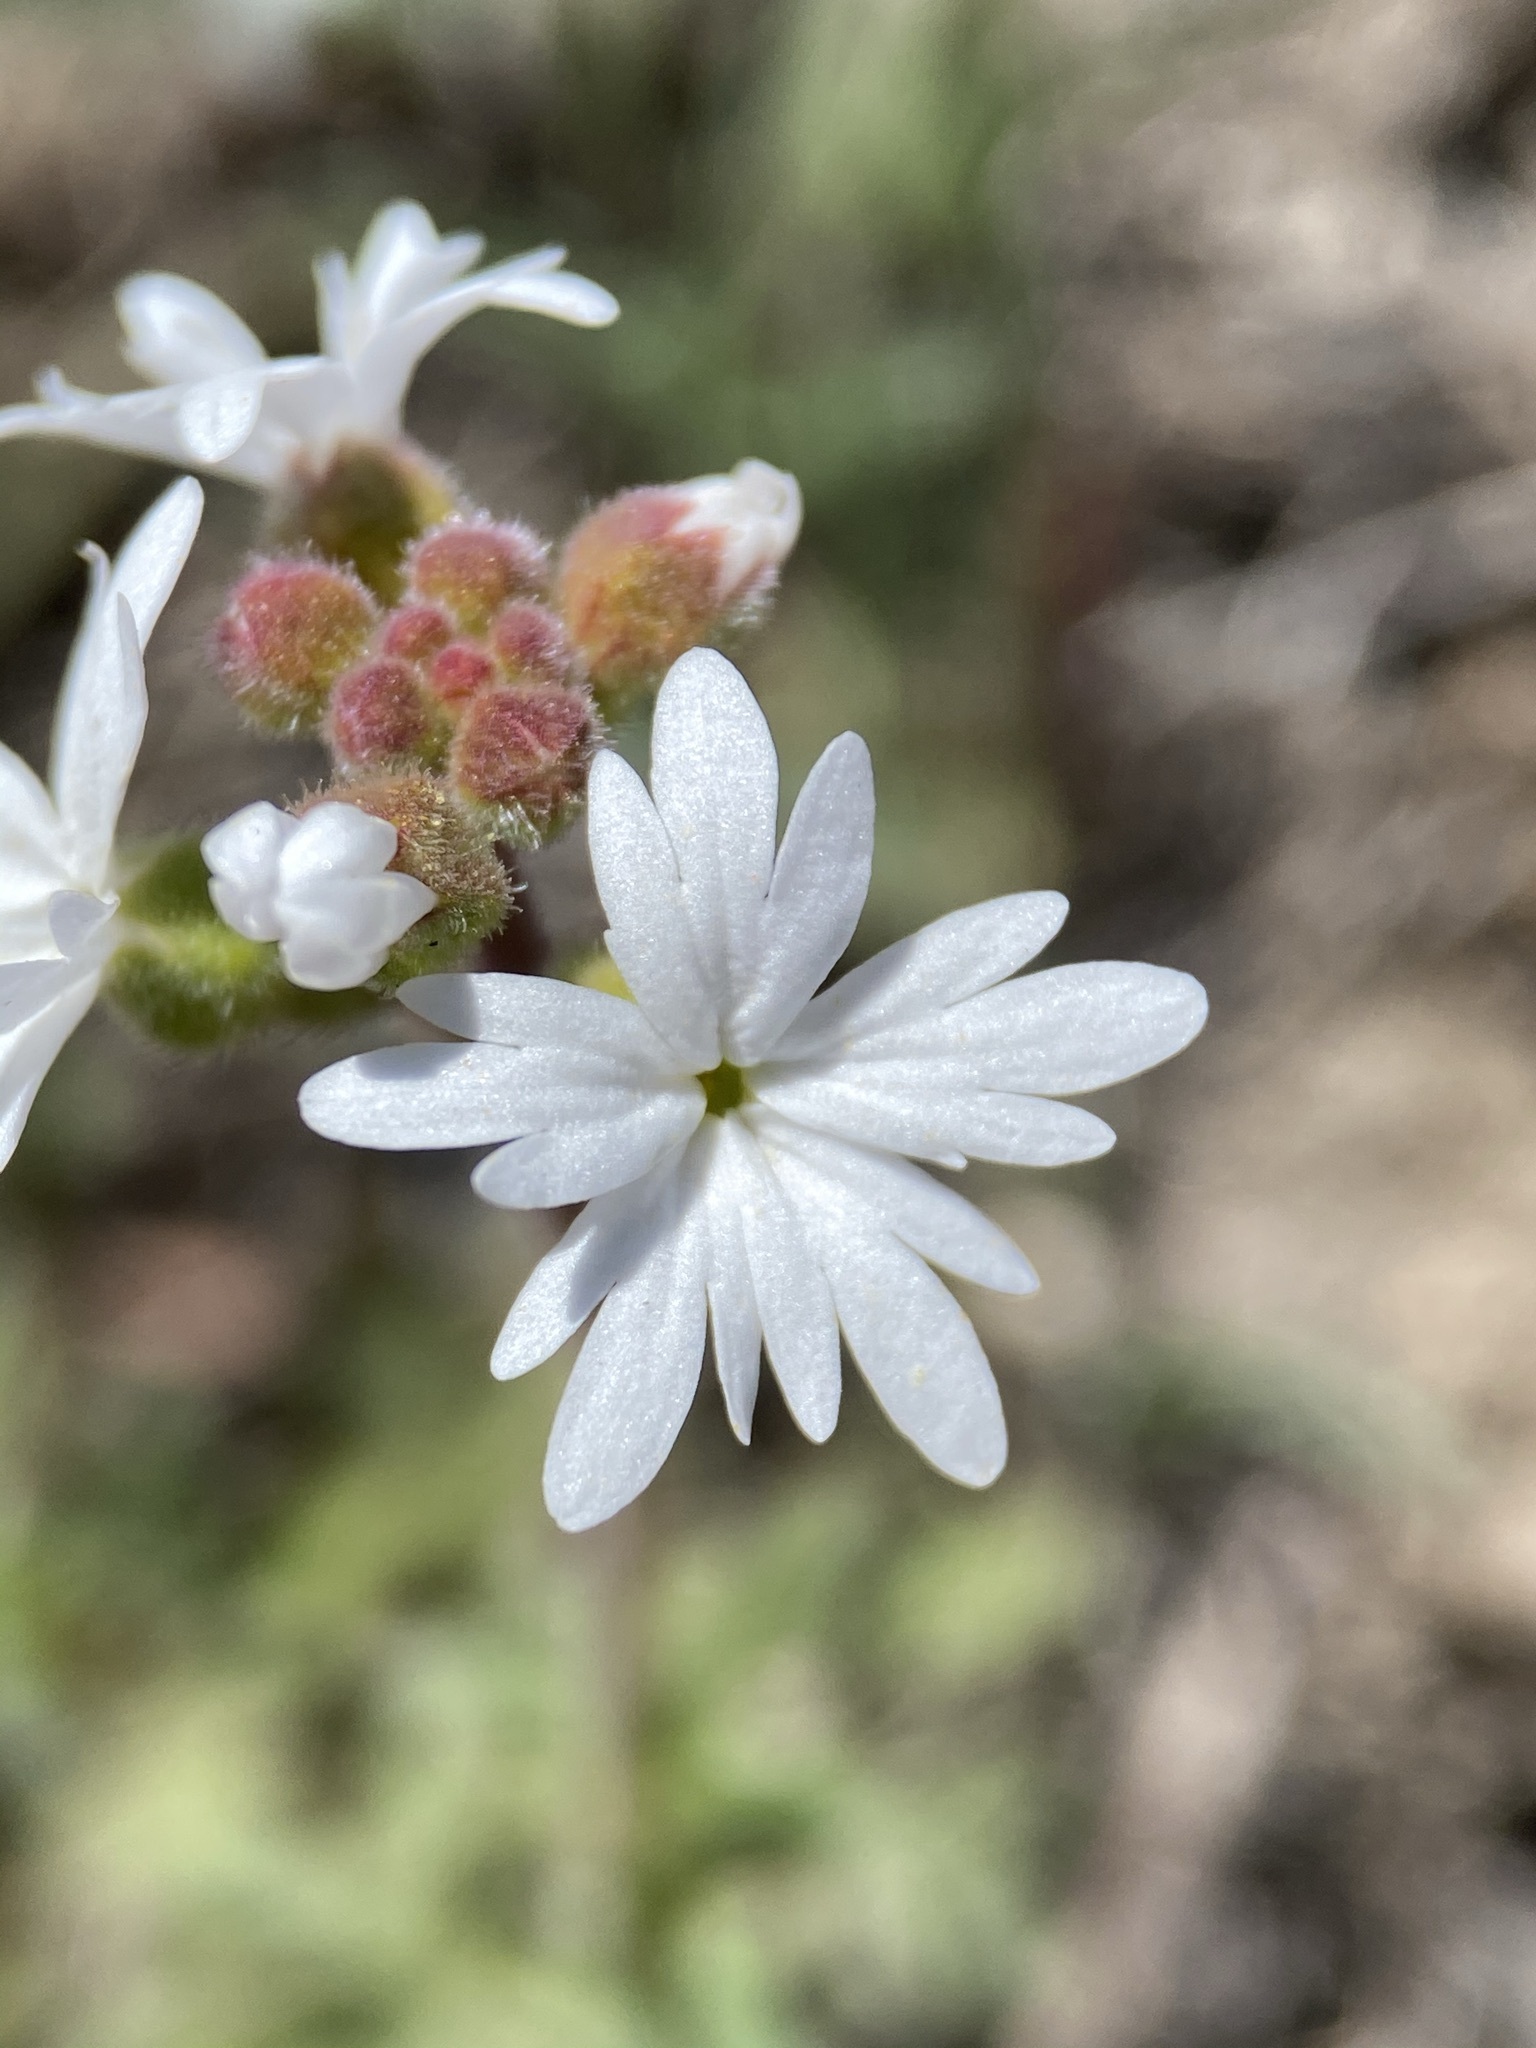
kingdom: Plantae
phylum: Tracheophyta
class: Magnoliopsida
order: Saxifragales
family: Saxifragaceae
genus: Lithophragma
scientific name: Lithophragma parviflorum
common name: Small-flowered fringe-cup
